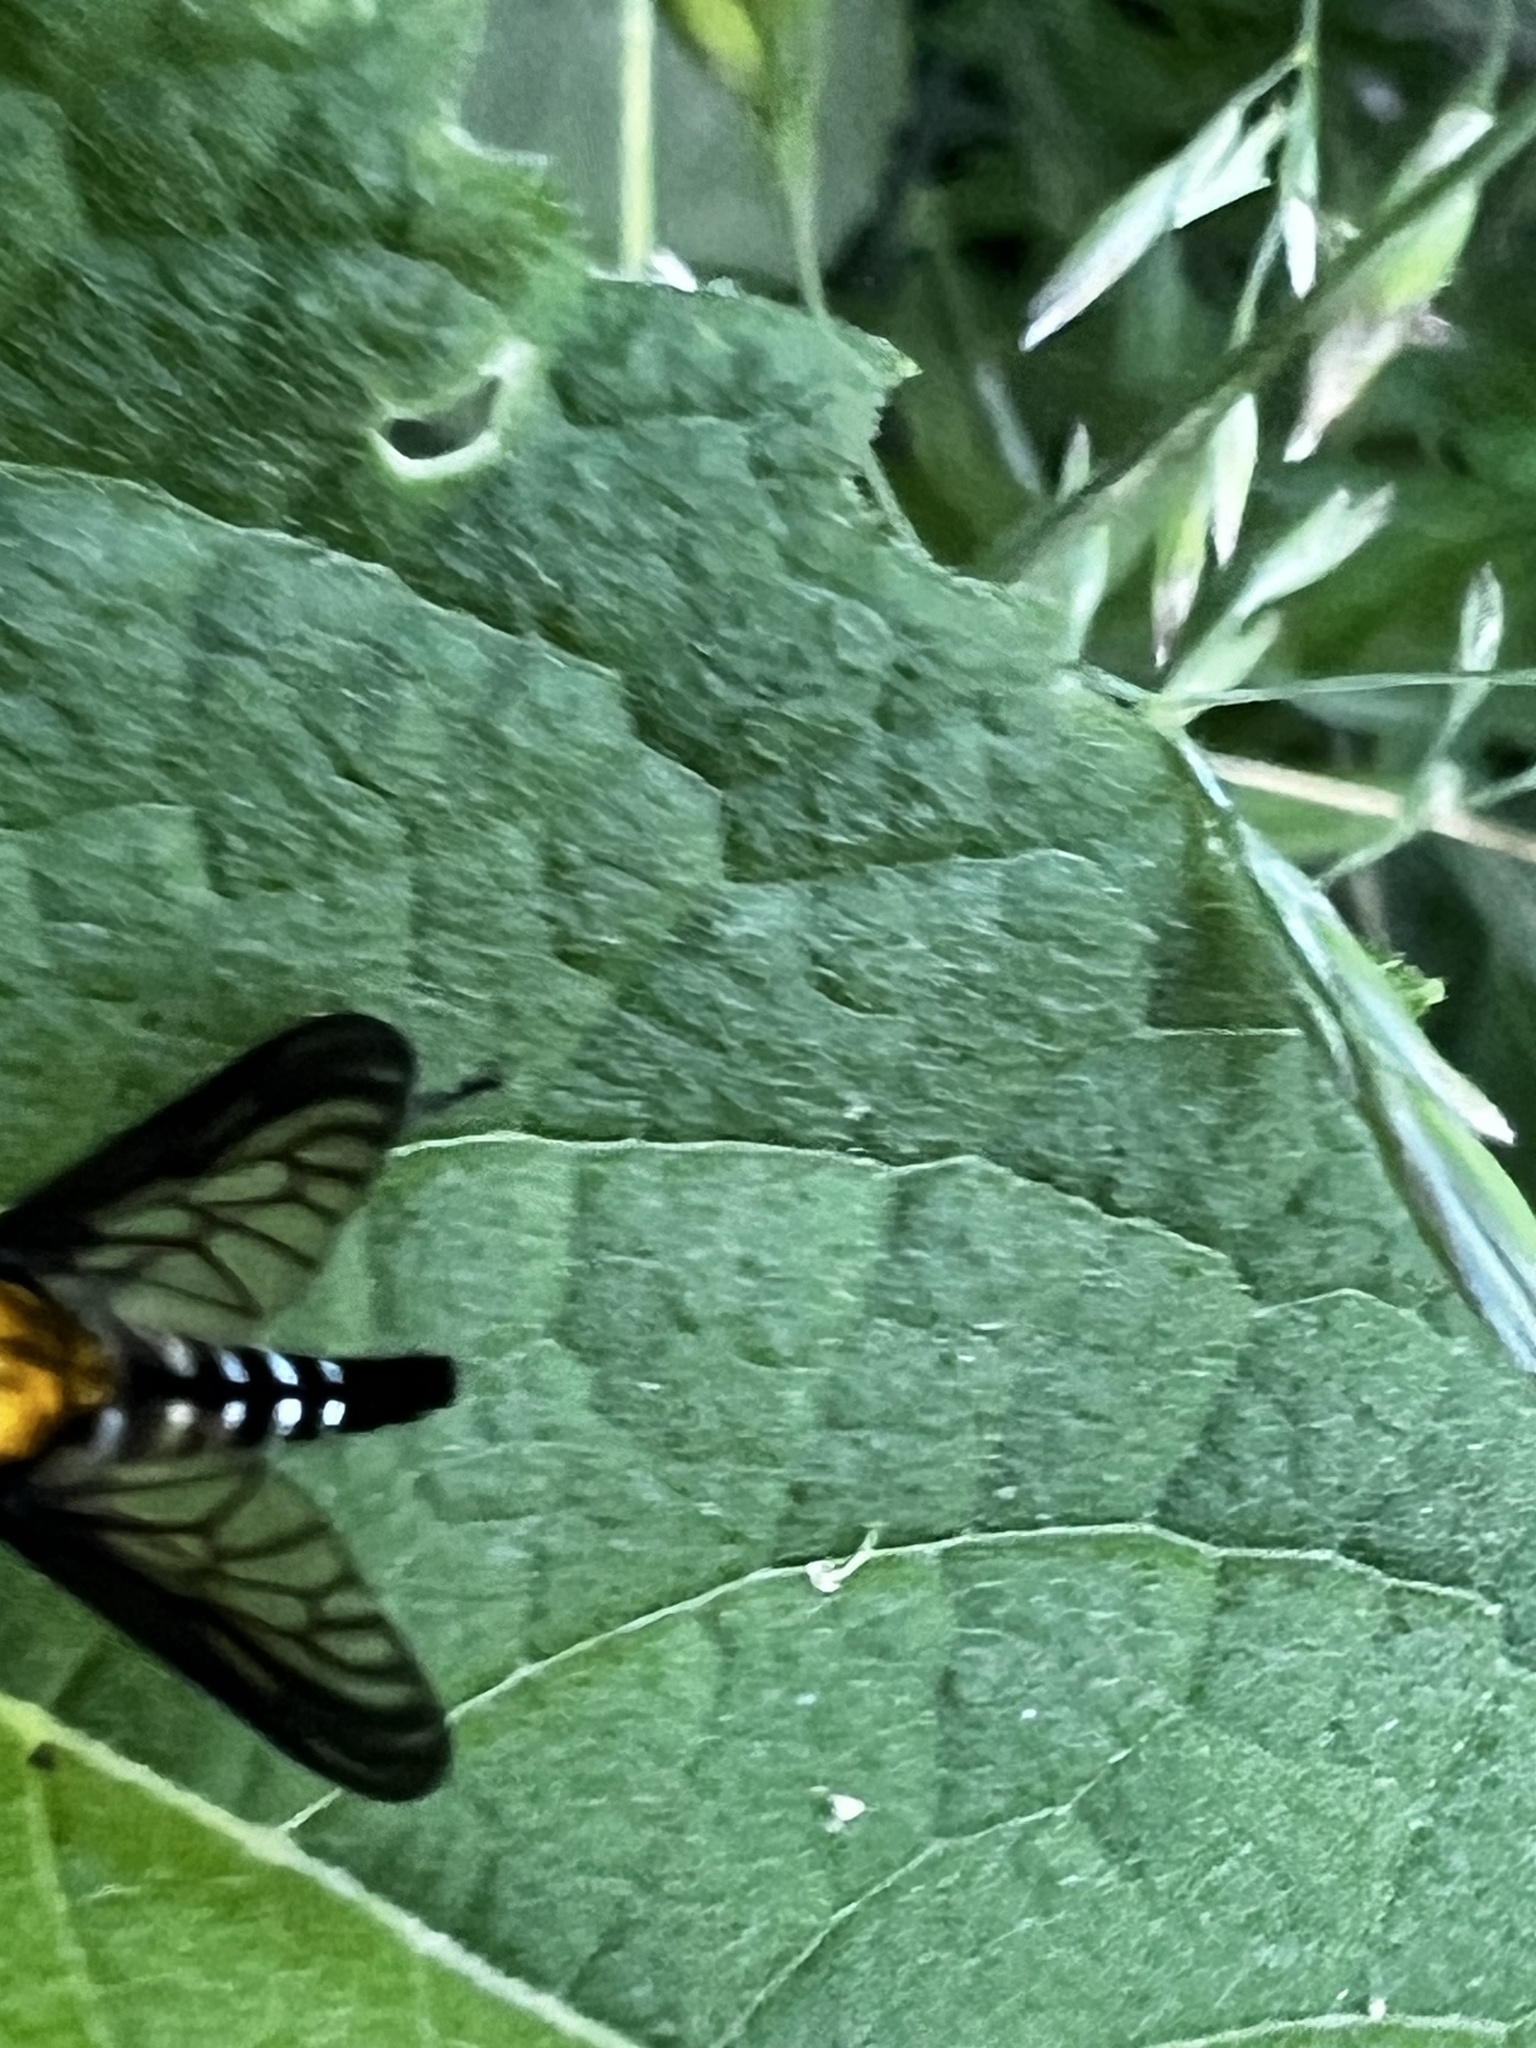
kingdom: Animalia
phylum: Arthropoda
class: Insecta
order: Diptera
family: Rhagionidae
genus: Chrysopilus
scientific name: Chrysopilus thoracicus
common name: Golden-backed snipe fly
